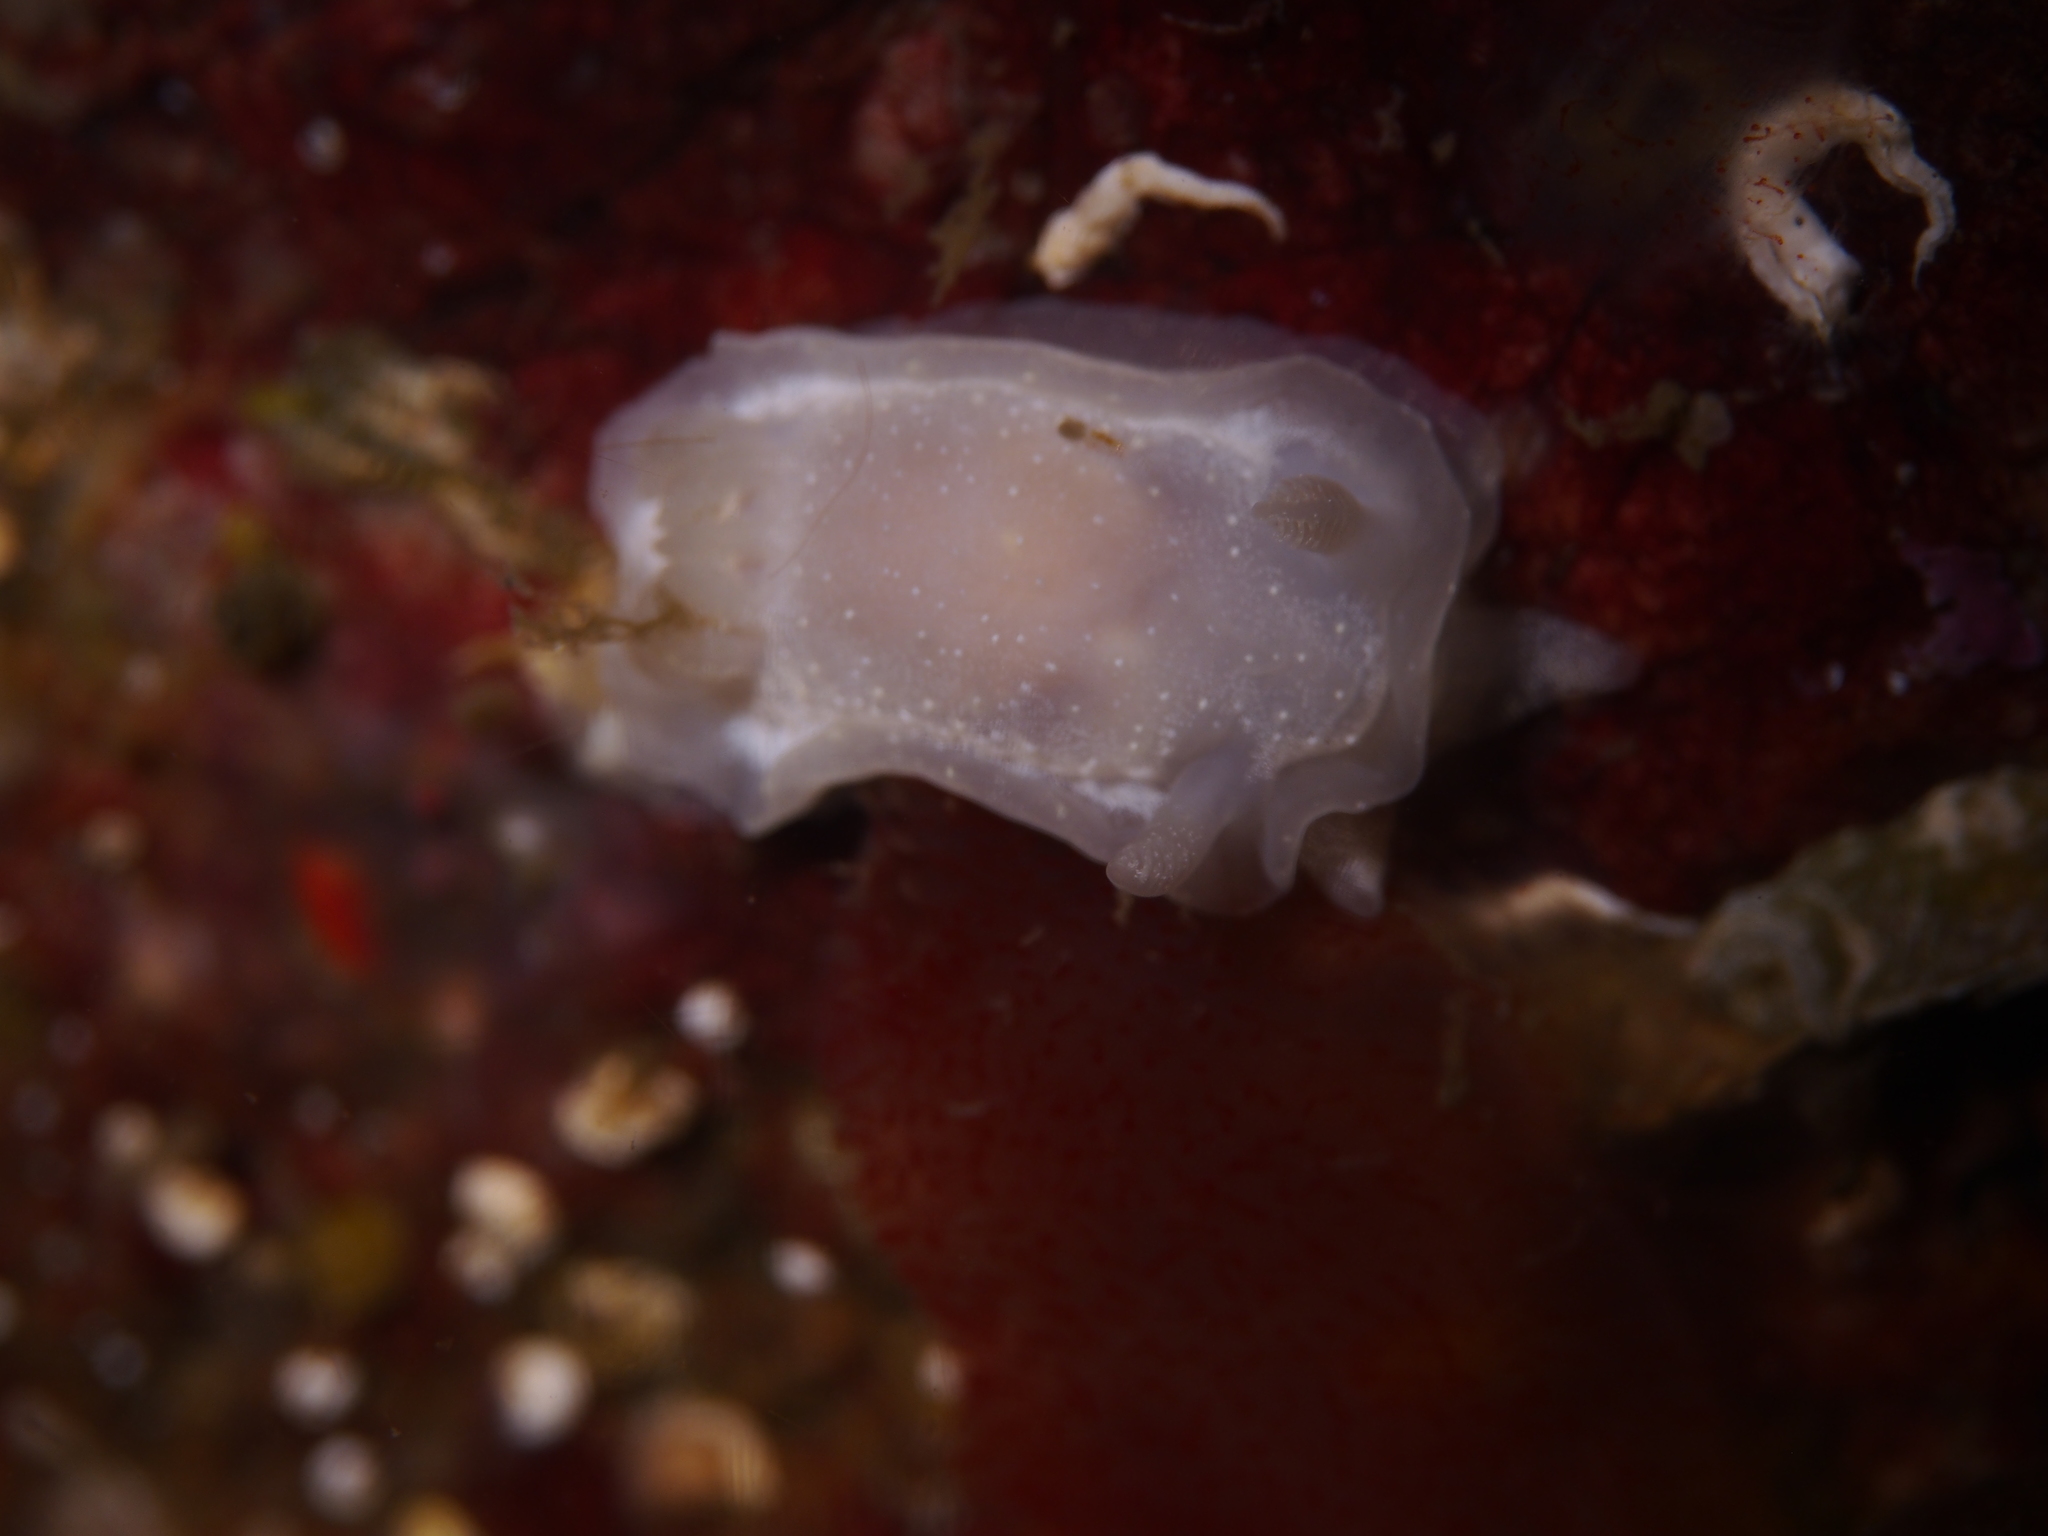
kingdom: Animalia
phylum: Mollusca
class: Gastropoda
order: Nudibranchia
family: Goniodorididae
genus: Okenia
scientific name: Okenia
